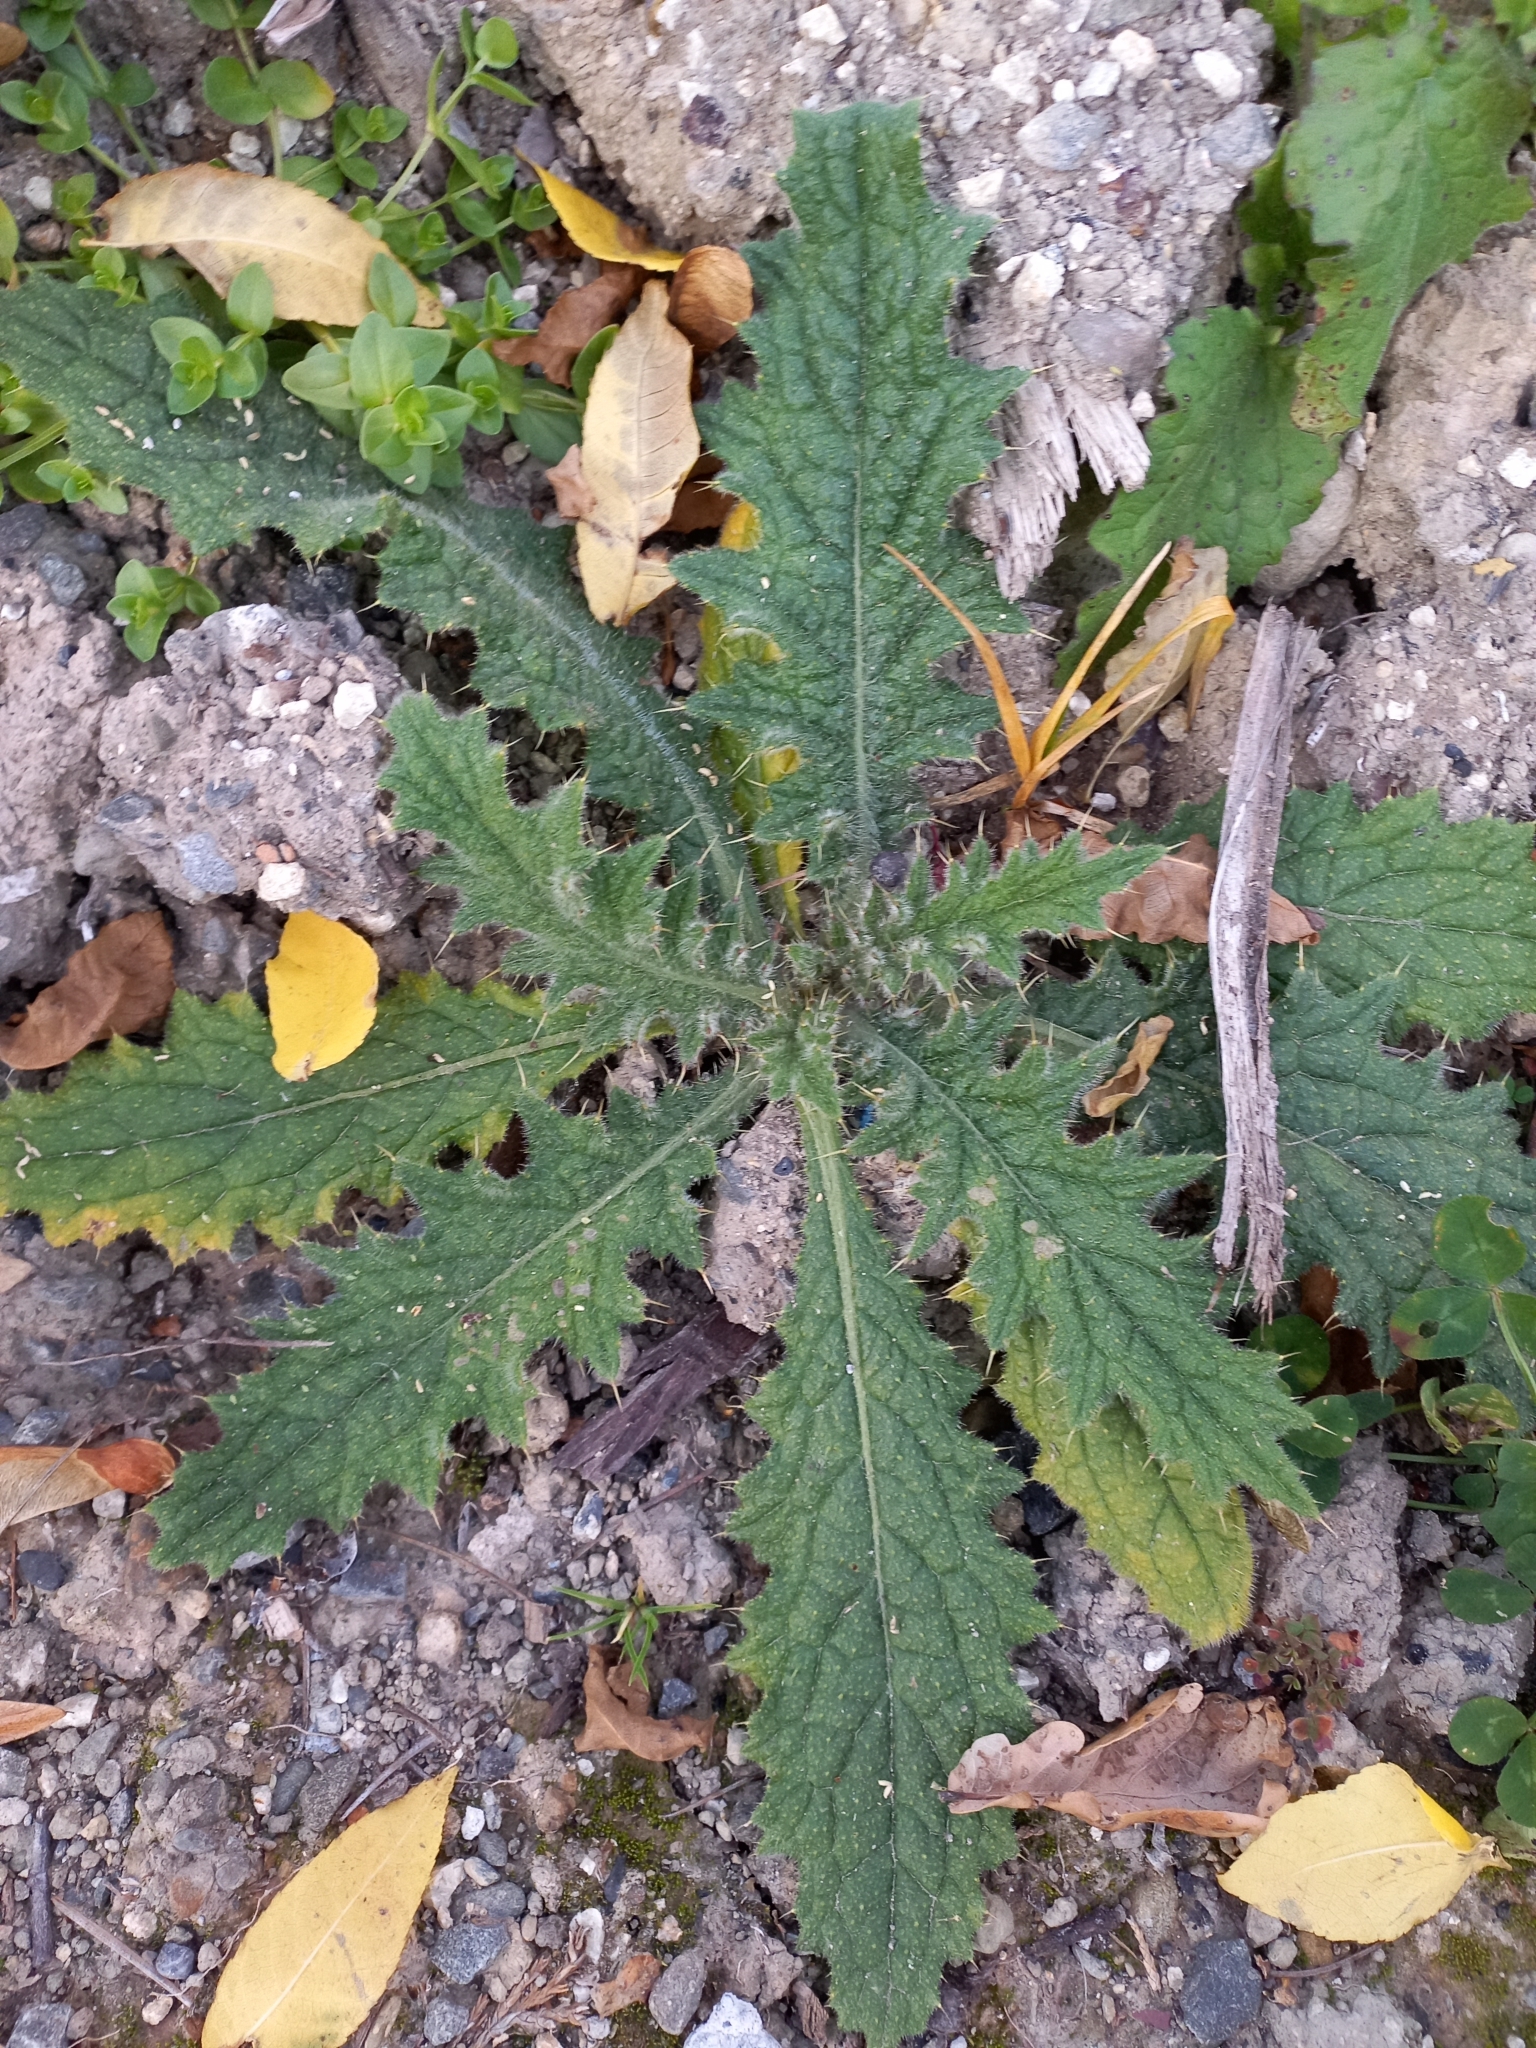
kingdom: Plantae
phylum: Tracheophyta
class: Magnoliopsida
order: Asterales
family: Asteraceae
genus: Cirsium
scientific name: Cirsium vulgare
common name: Bull thistle
